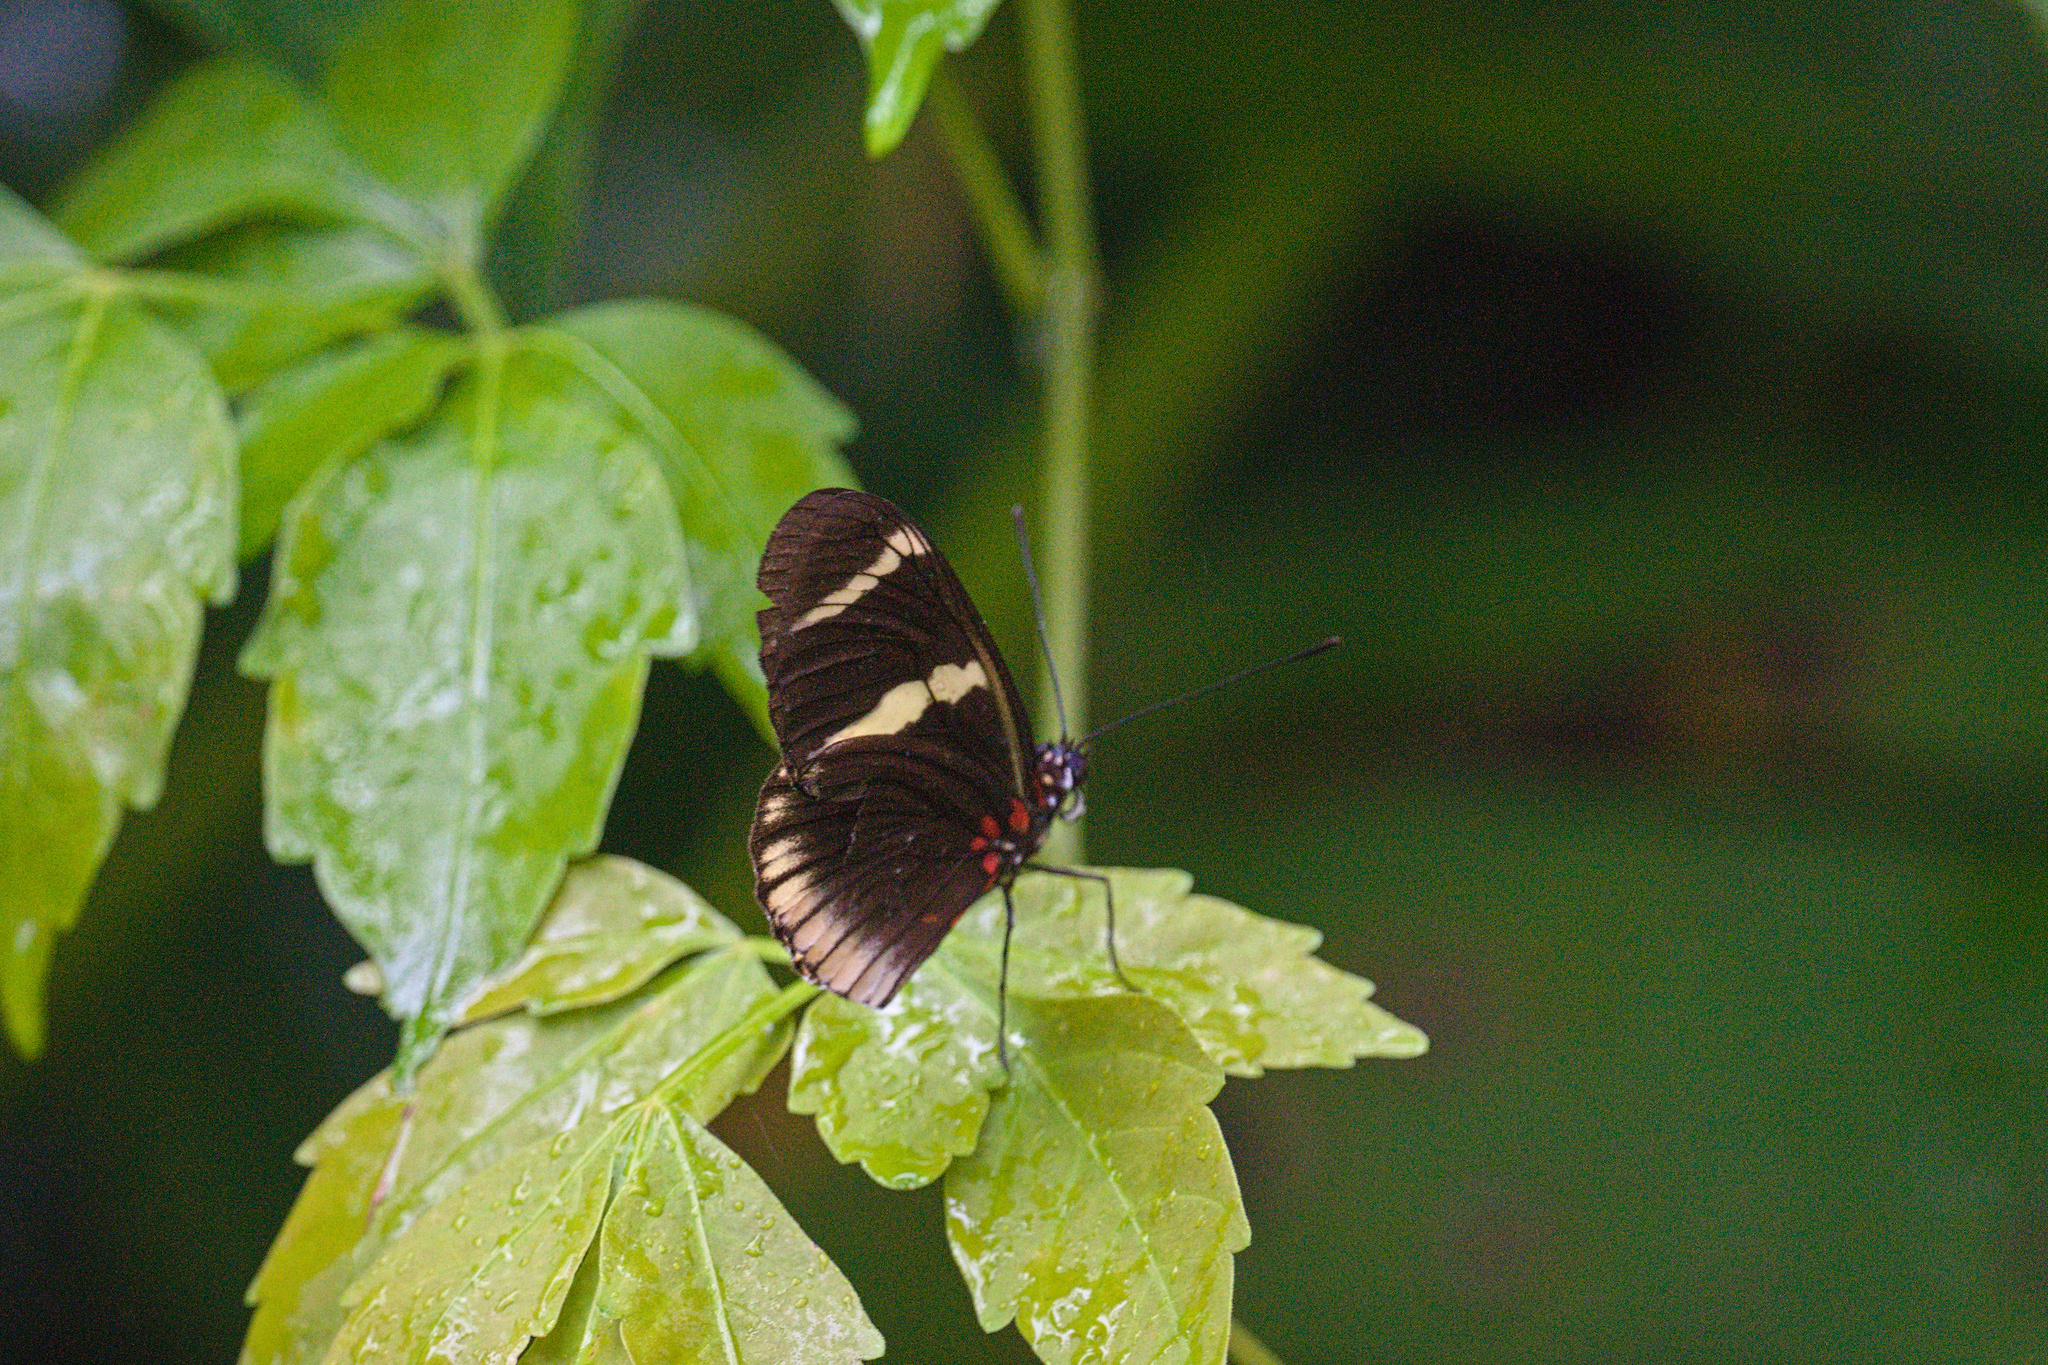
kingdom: Animalia
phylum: Arthropoda
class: Insecta
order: Lepidoptera
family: Nymphalidae
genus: Heliconius
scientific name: Heliconius sara
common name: Sara longwing
